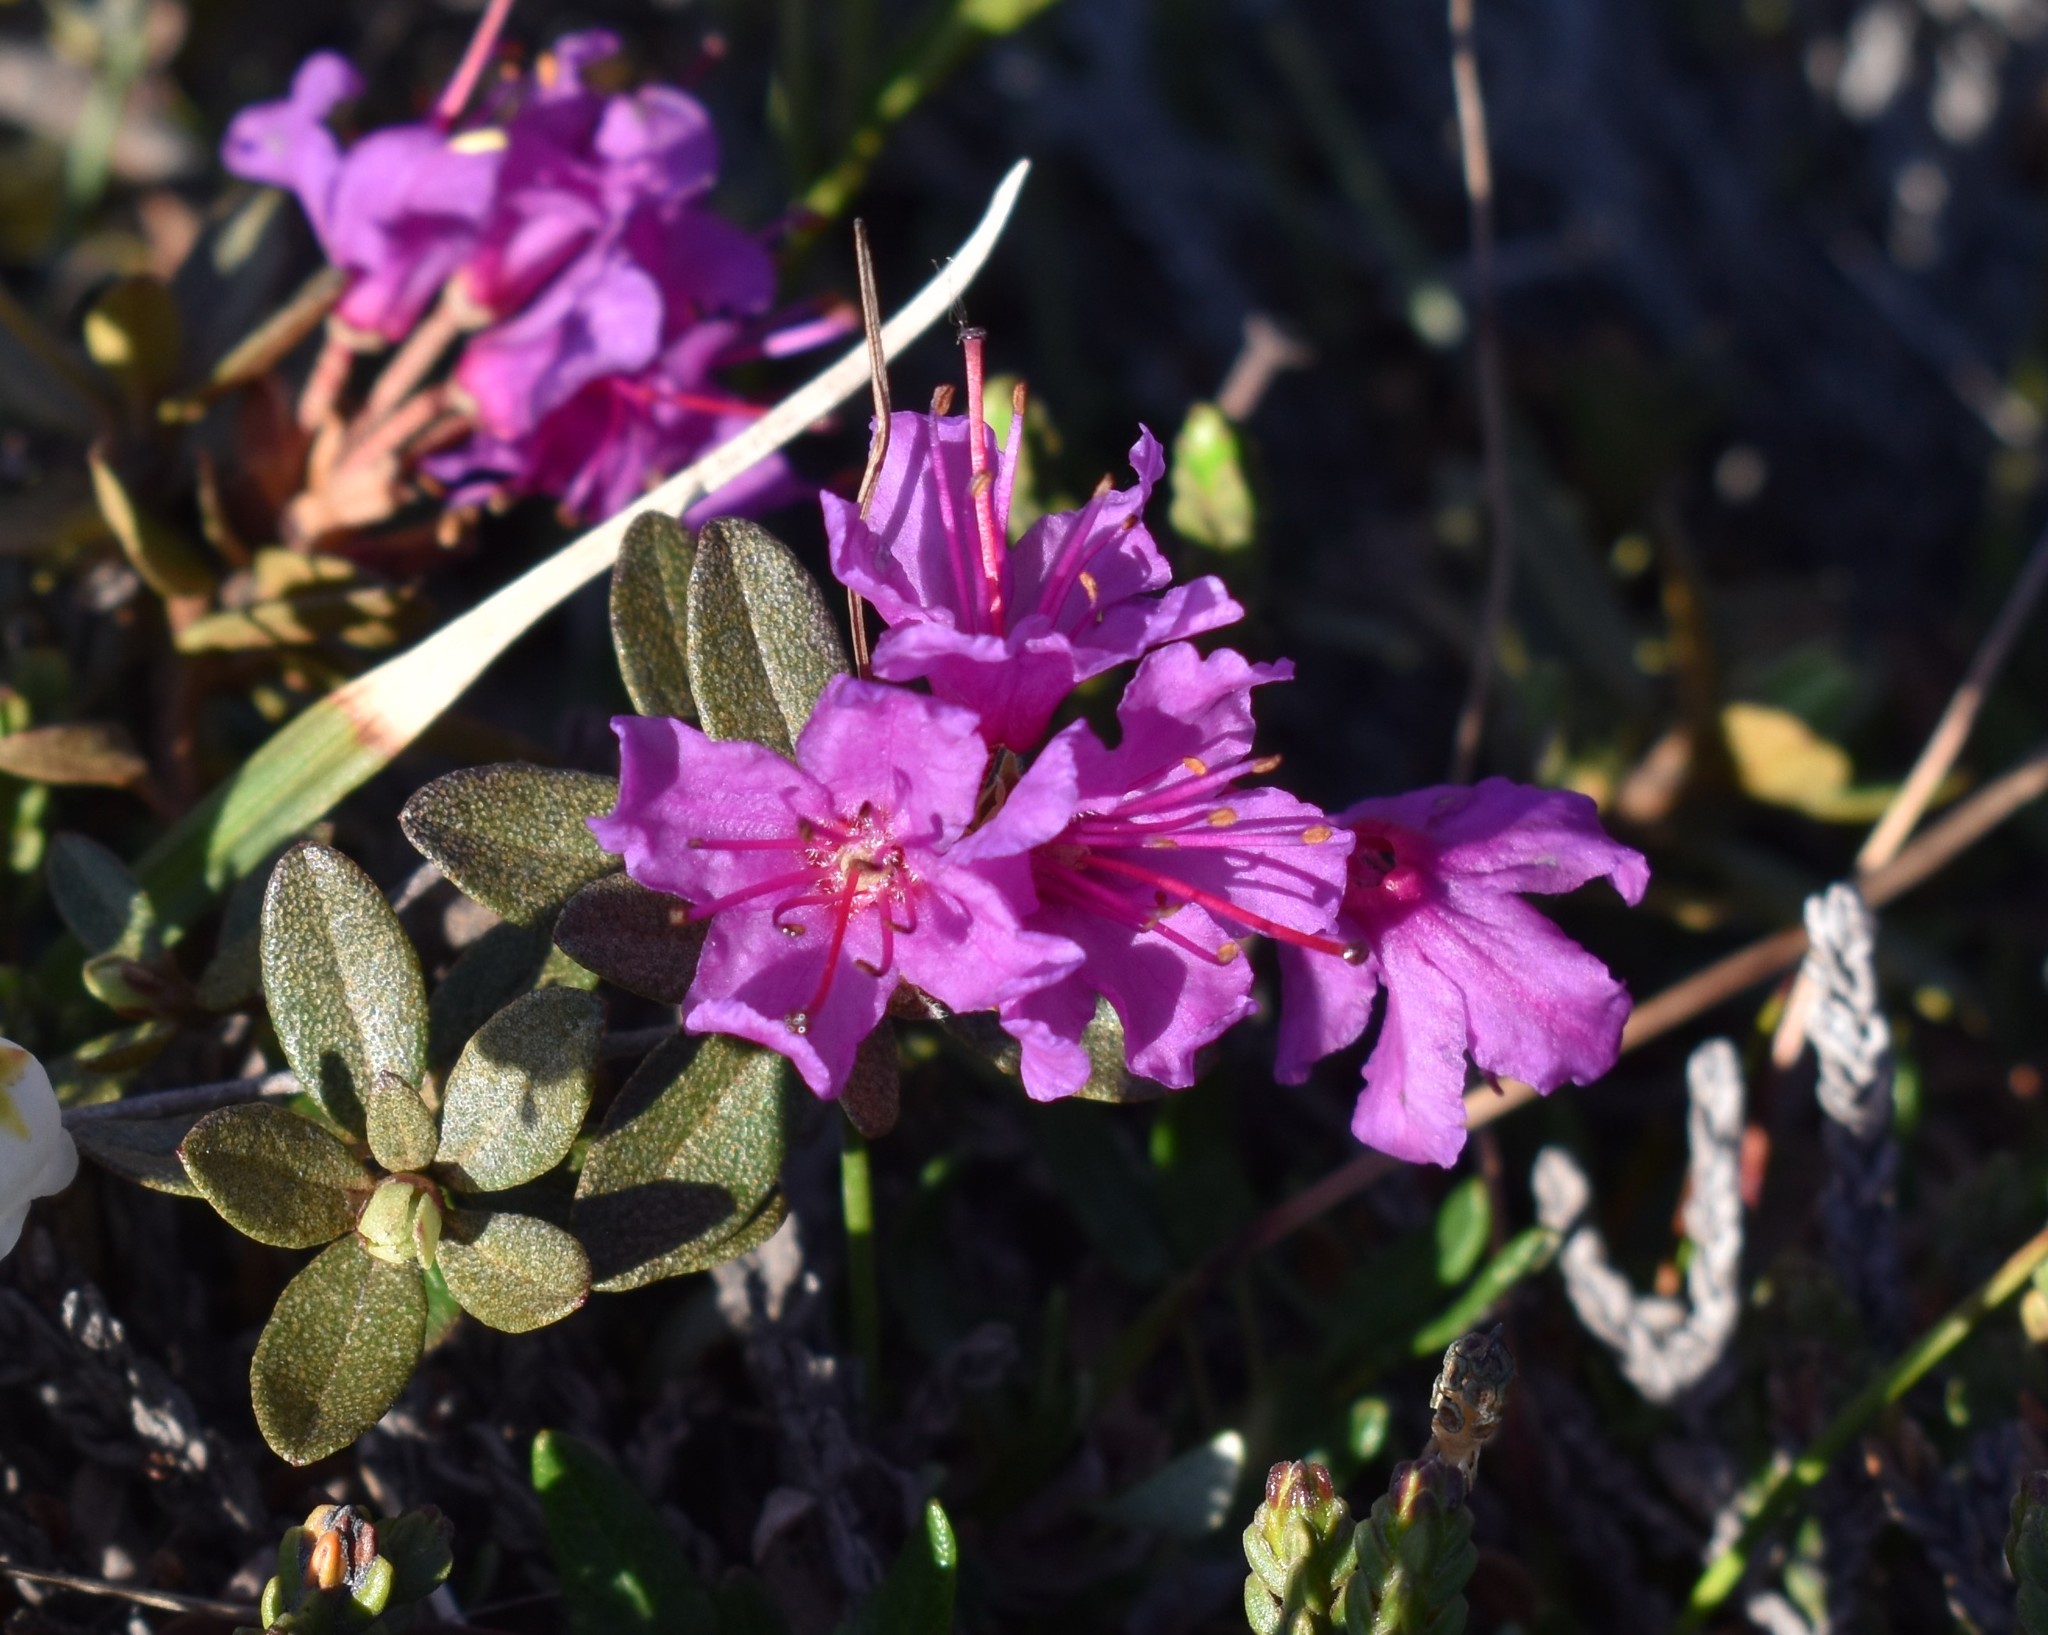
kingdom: Plantae
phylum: Tracheophyta
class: Magnoliopsida
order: Ericales
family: Ericaceae
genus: Rhododendron
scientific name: Rhododendron lapponicum
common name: Lapland rhododendron
